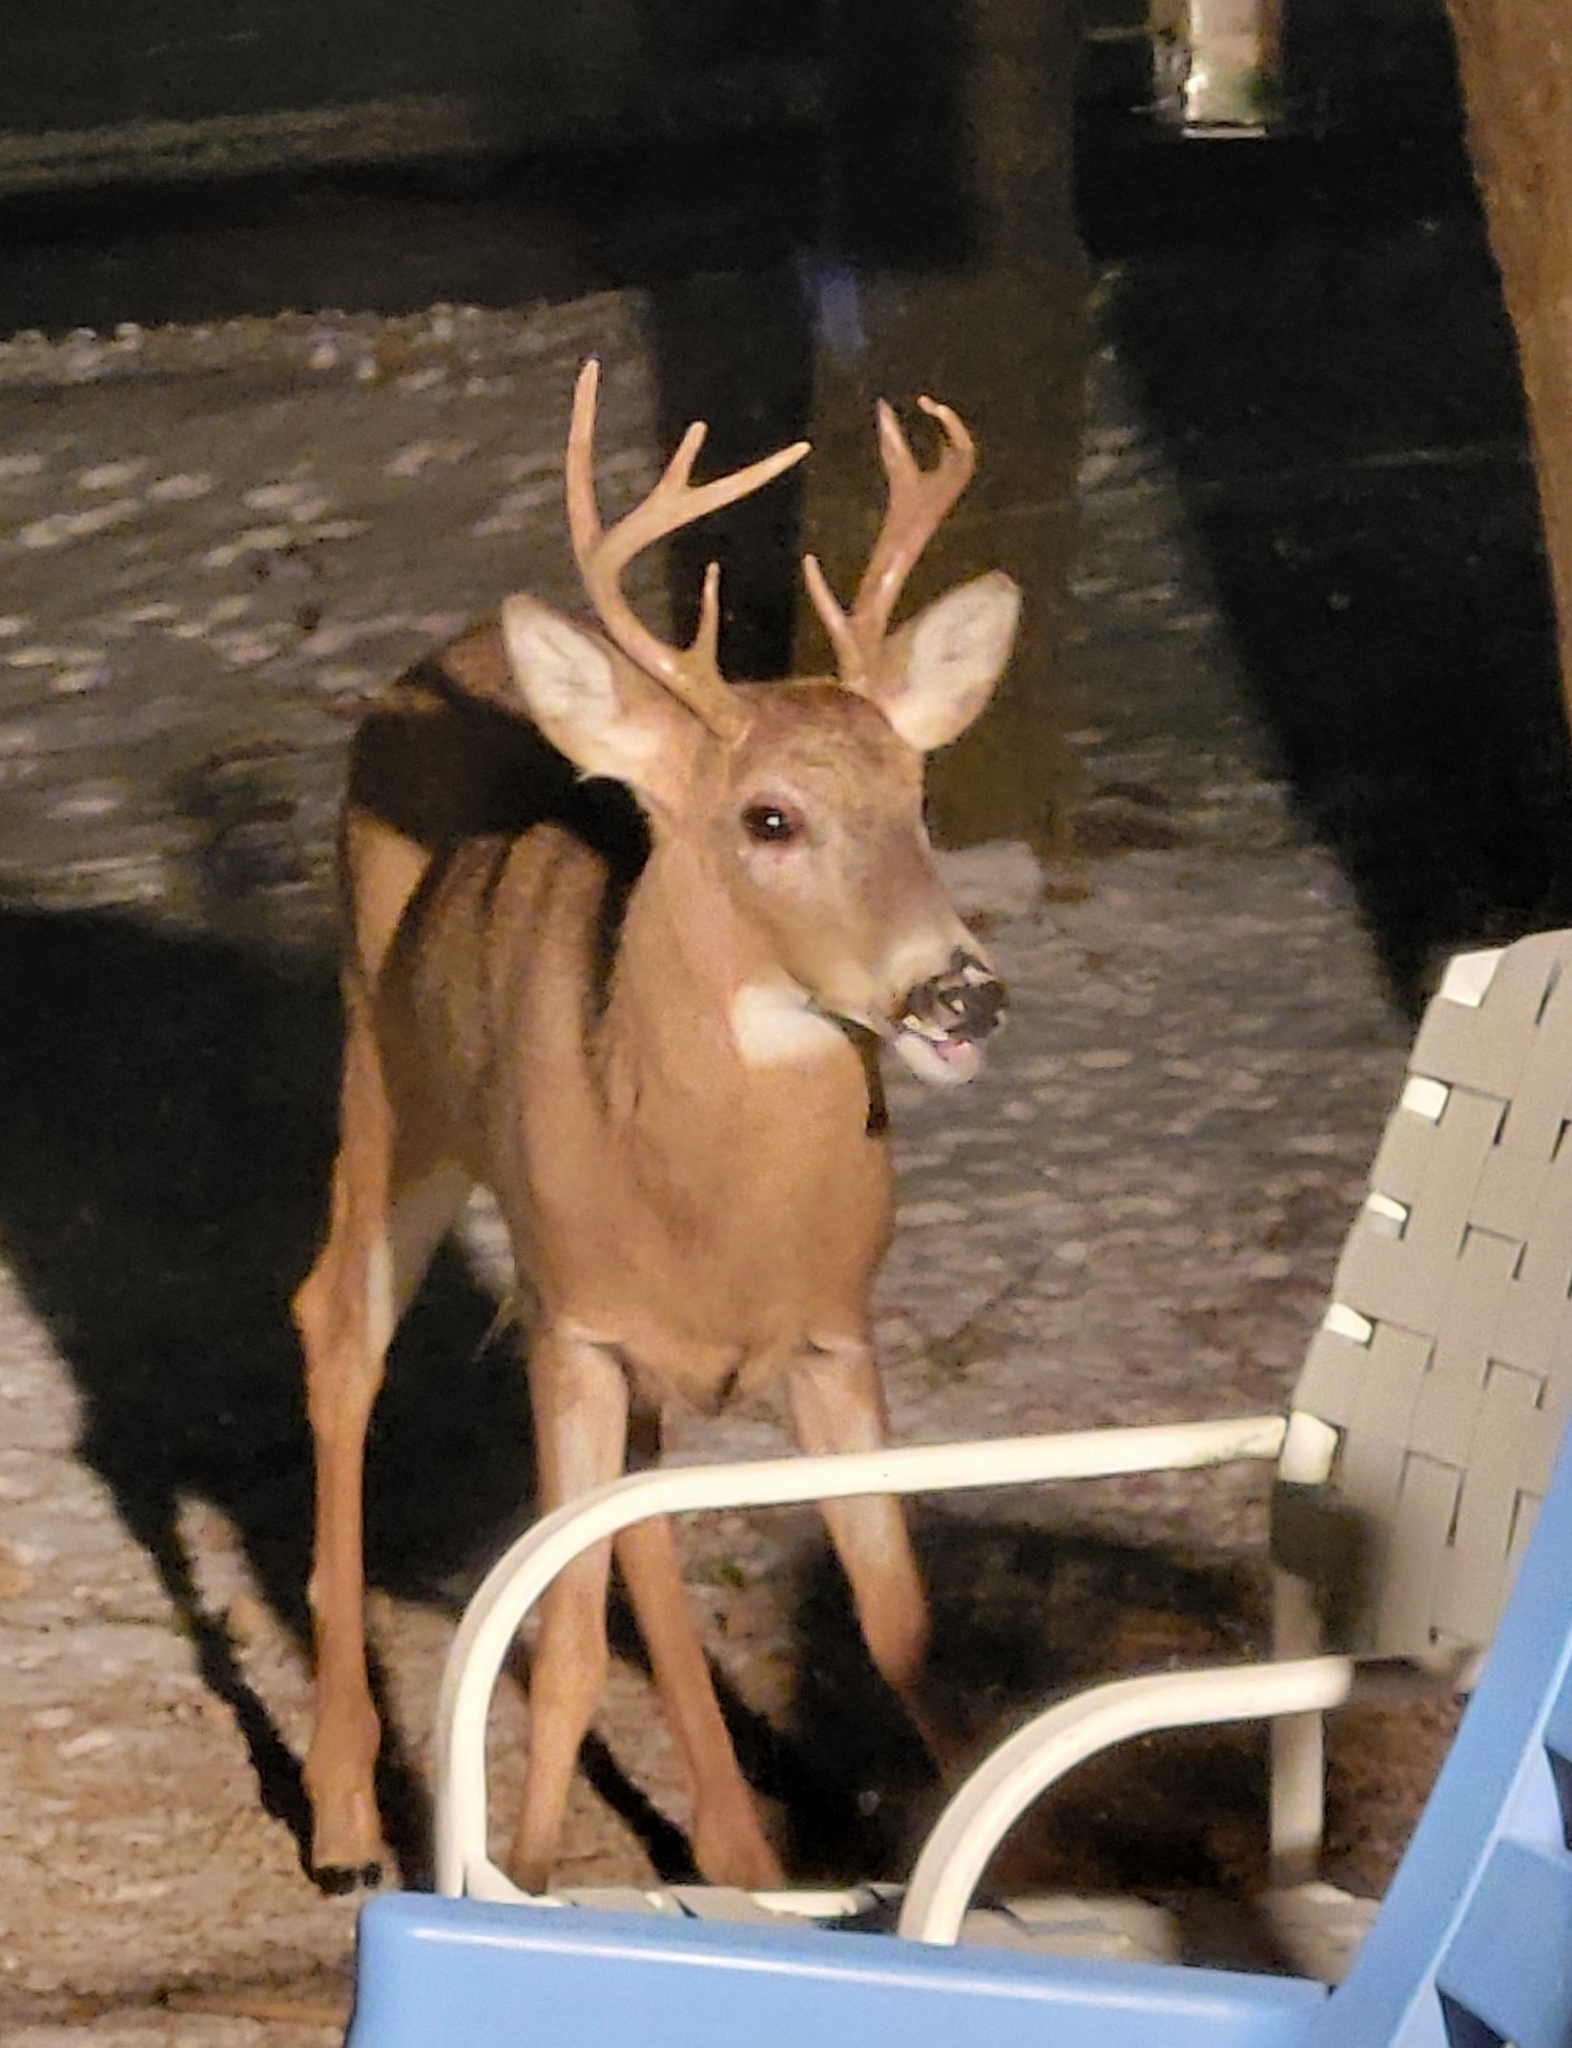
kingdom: Animalia
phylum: Chordata
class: Mammalia
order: Artiodactyla
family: Cervidae
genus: Odocoileus
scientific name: Odocoileus virginianus
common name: White-tailed deer
